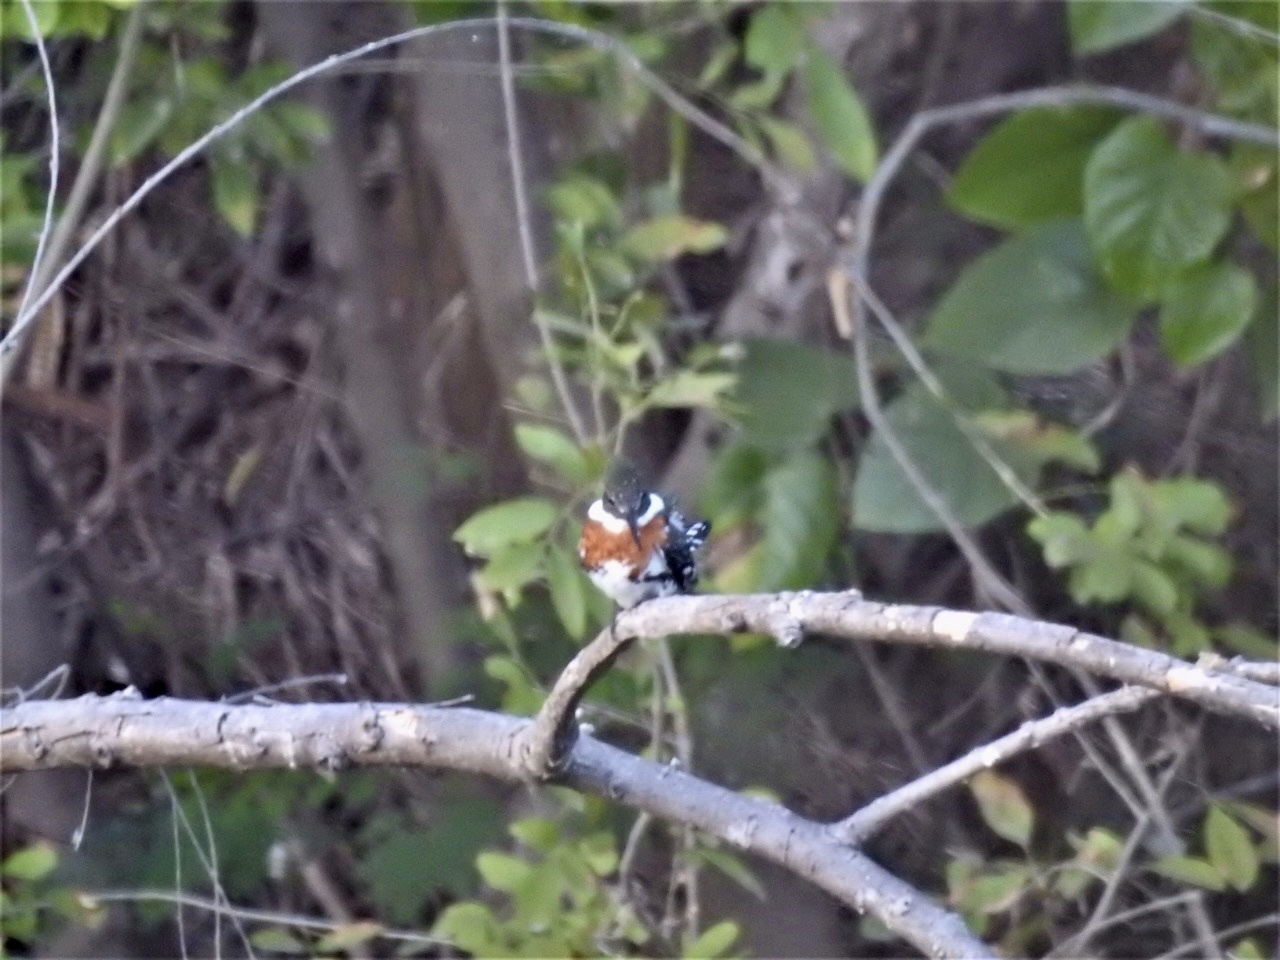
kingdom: Animalia
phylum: Chordata
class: Aves
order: Coraciiformes
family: Alcedinidae
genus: Chloroceryle
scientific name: Chloroceryle americana
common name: Green kingfisher
